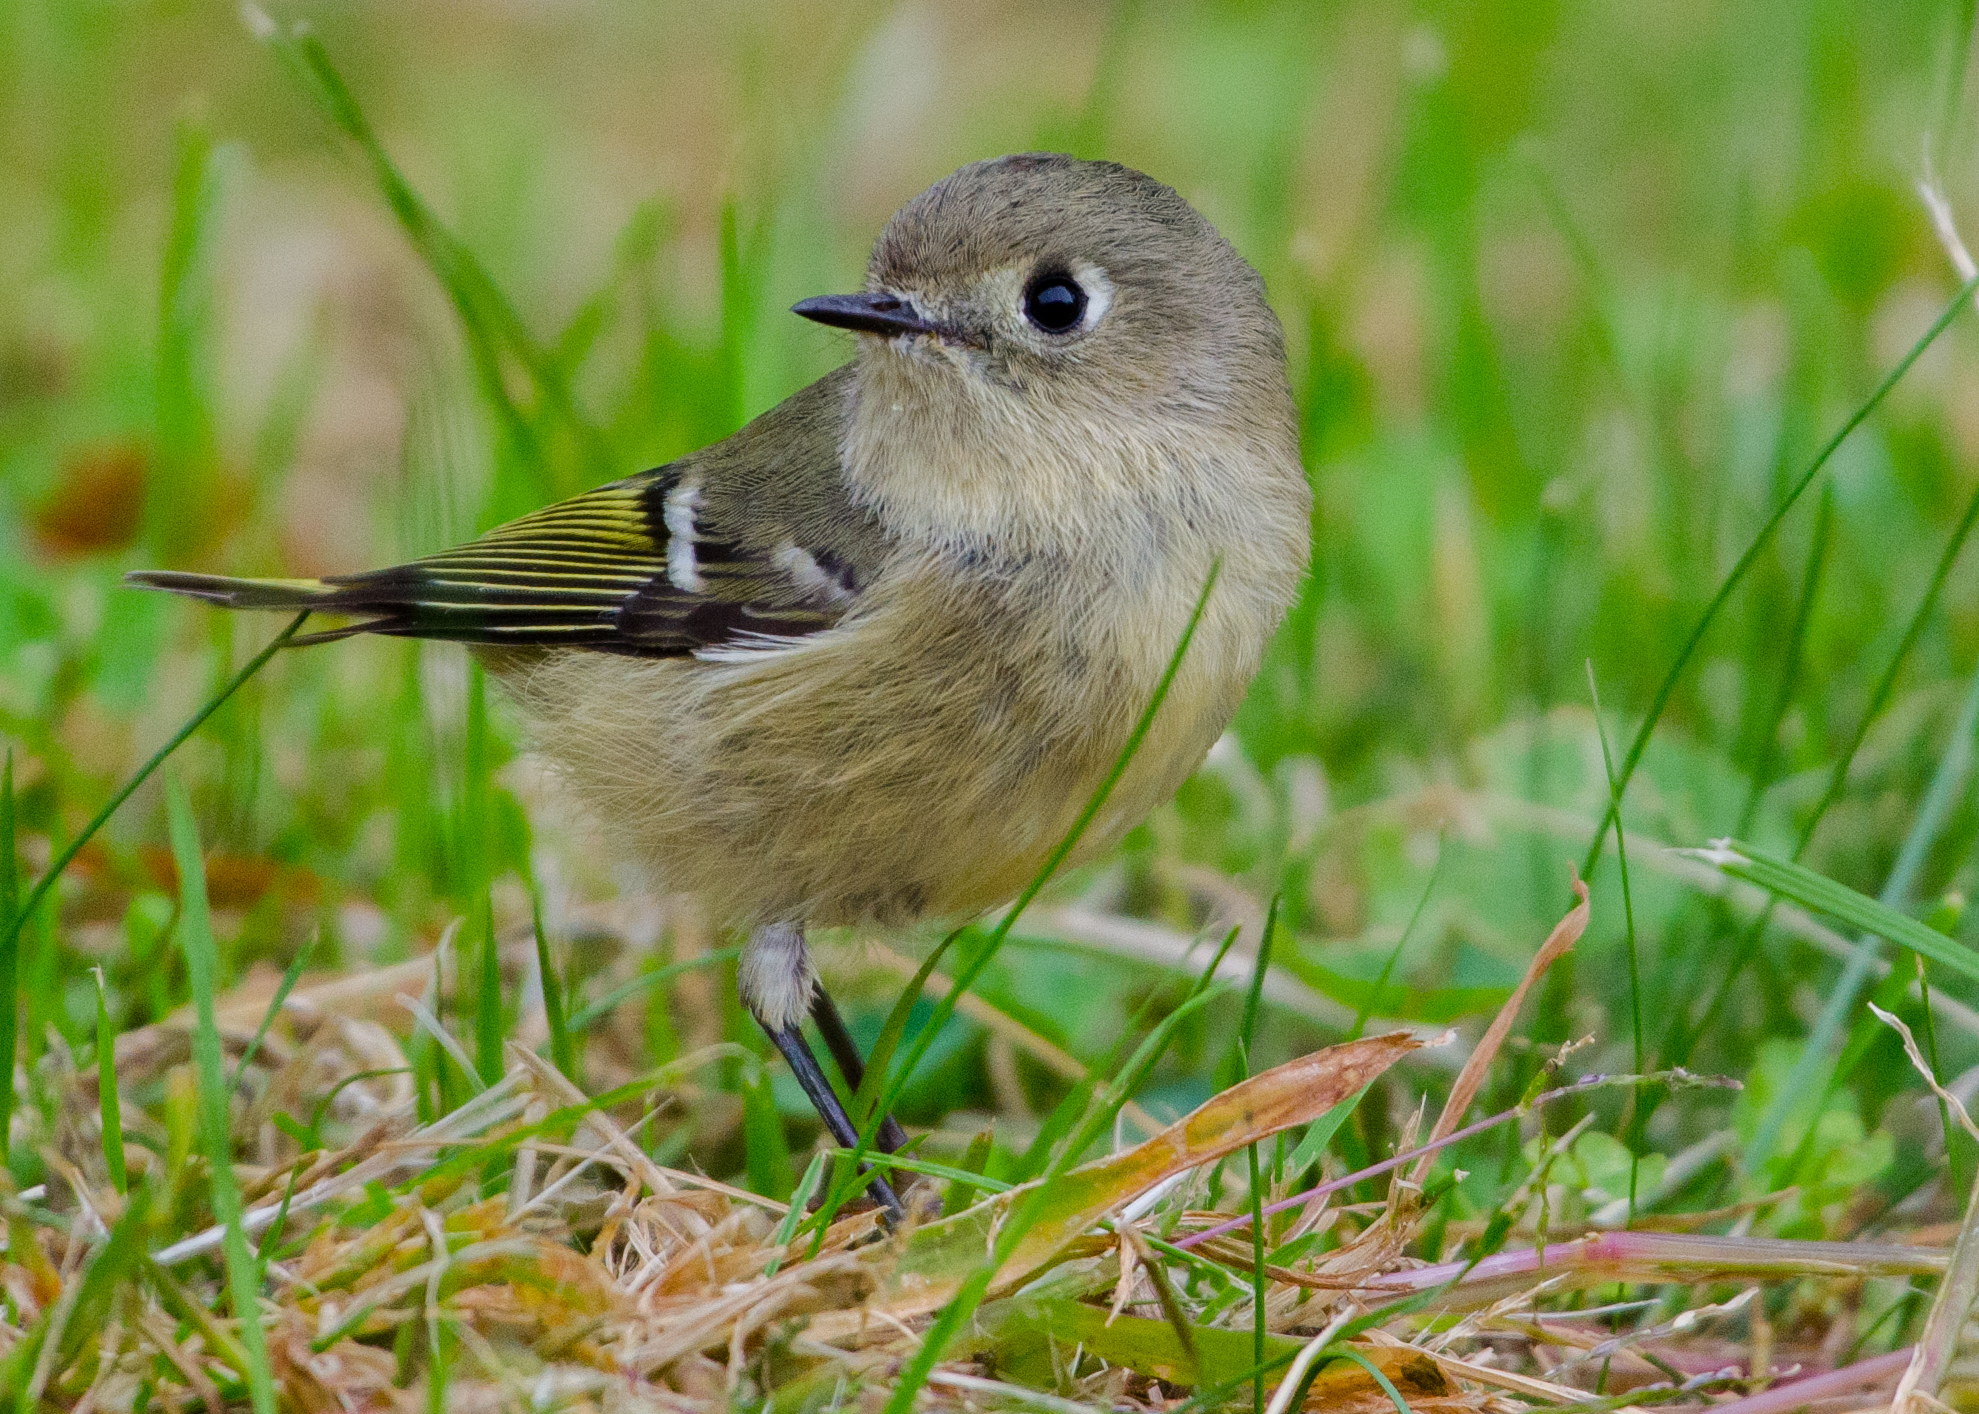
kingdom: Animalia
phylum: Chordata
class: Aves
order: Passeriformes
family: Regulidae
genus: Regulus
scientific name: Regulus calendula
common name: Ruby-crowned kinglet
